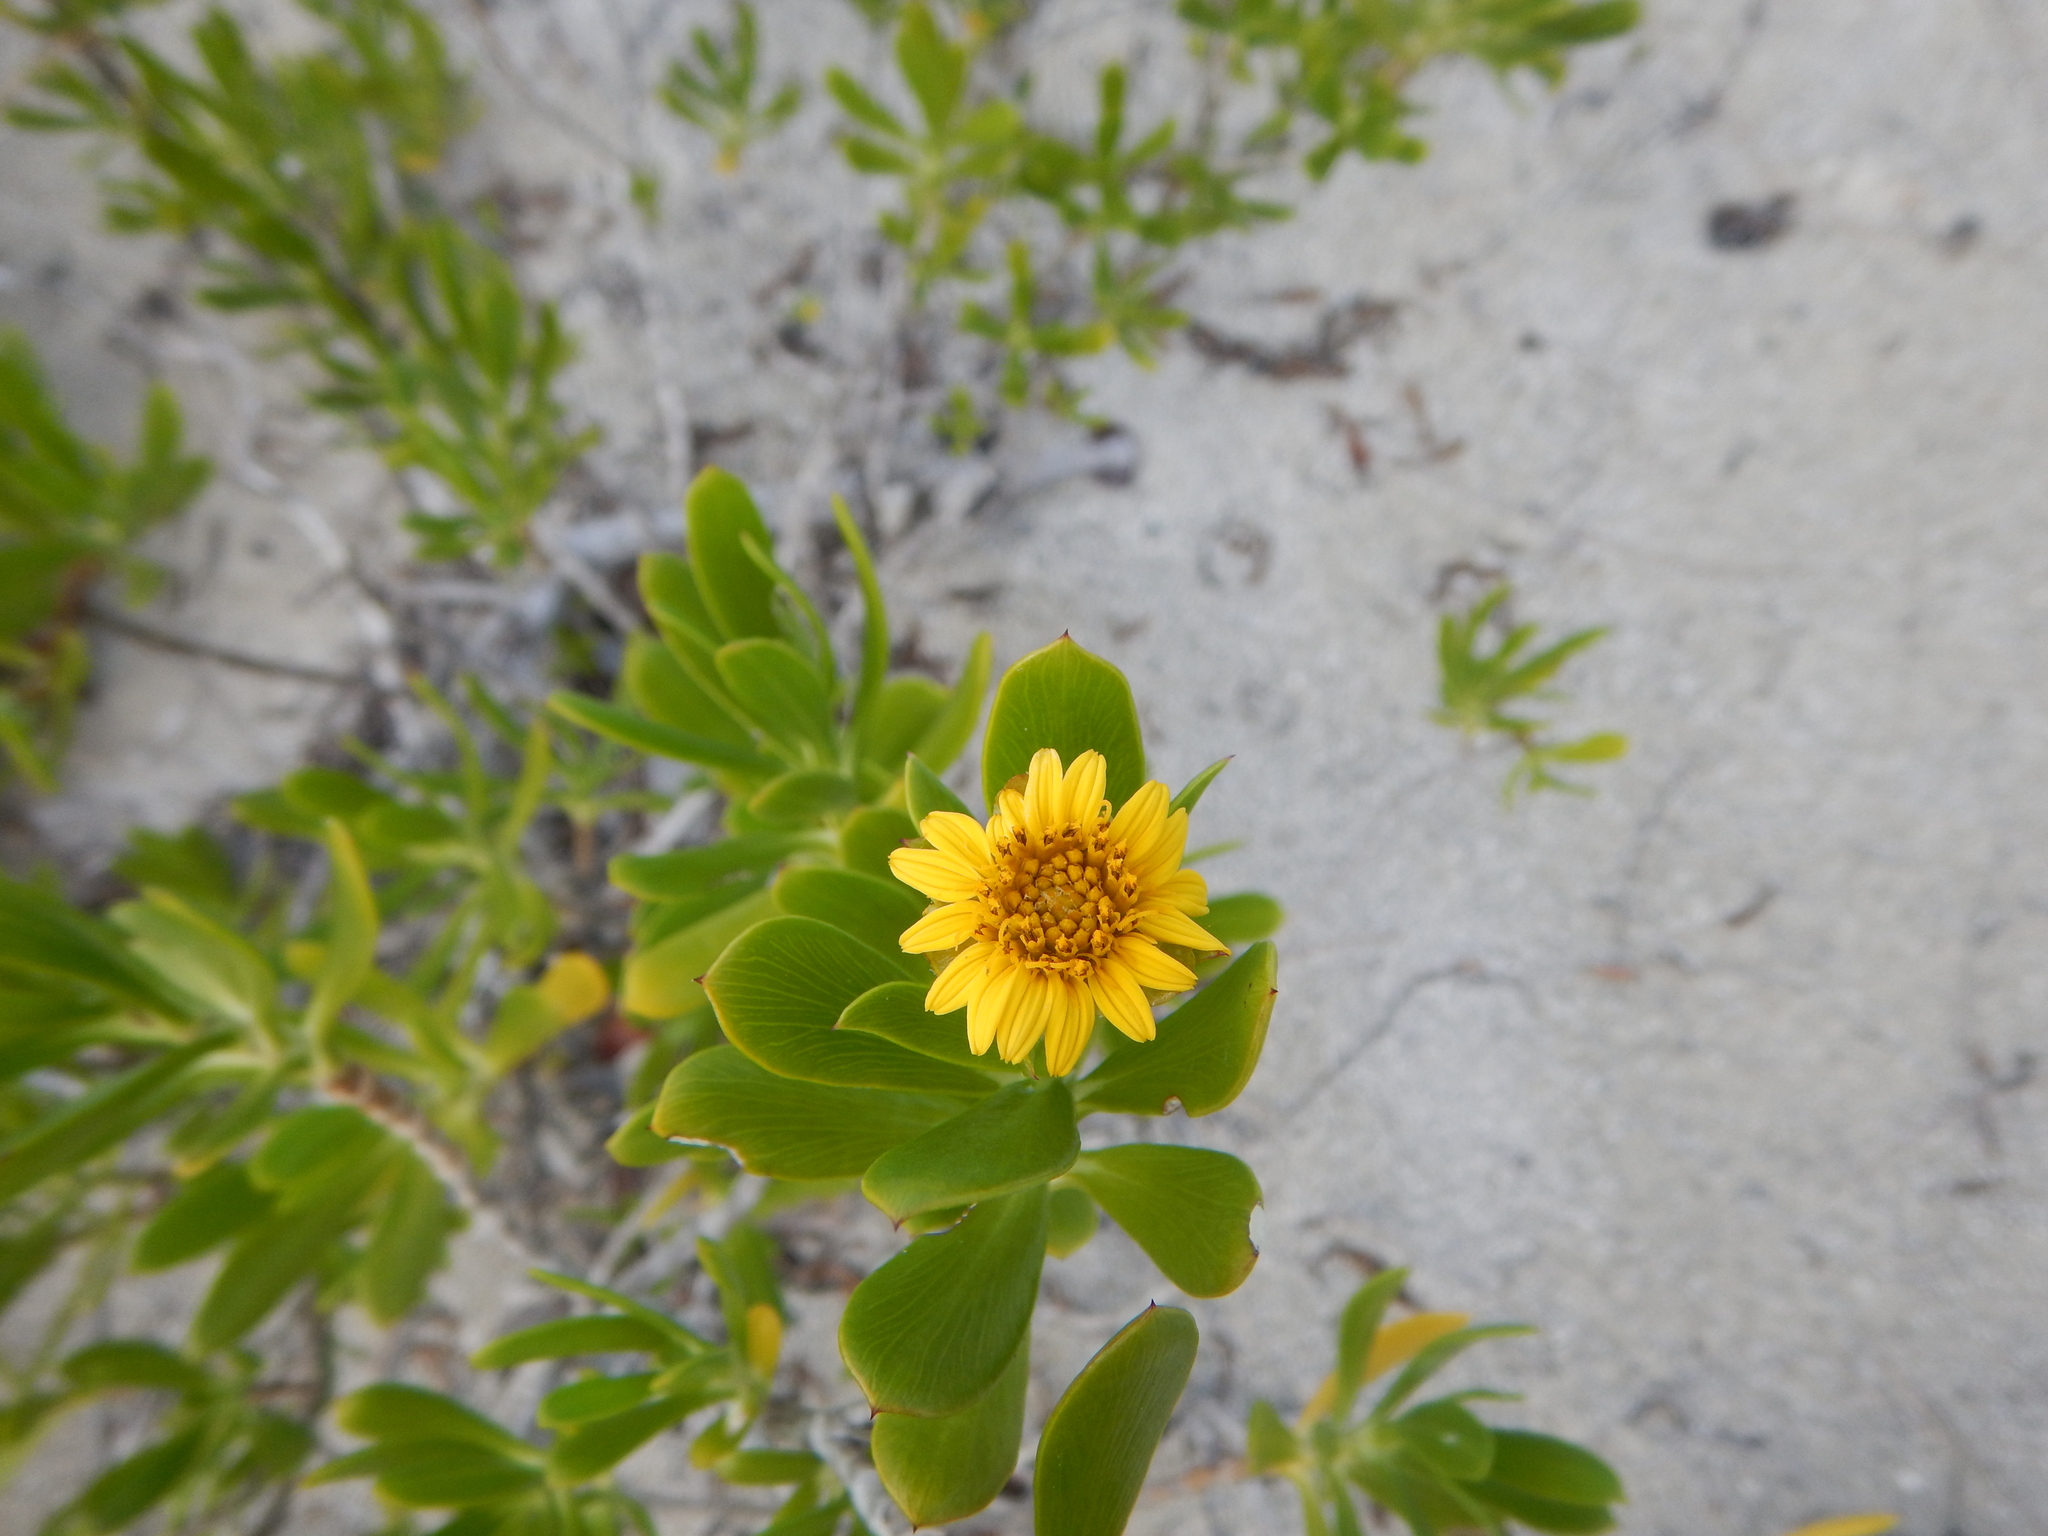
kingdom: Plantae
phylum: Tracheophyta
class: Magnoliopsida
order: Asterales
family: Asteraceae
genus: Borrichia
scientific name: Borrichia arborescens
